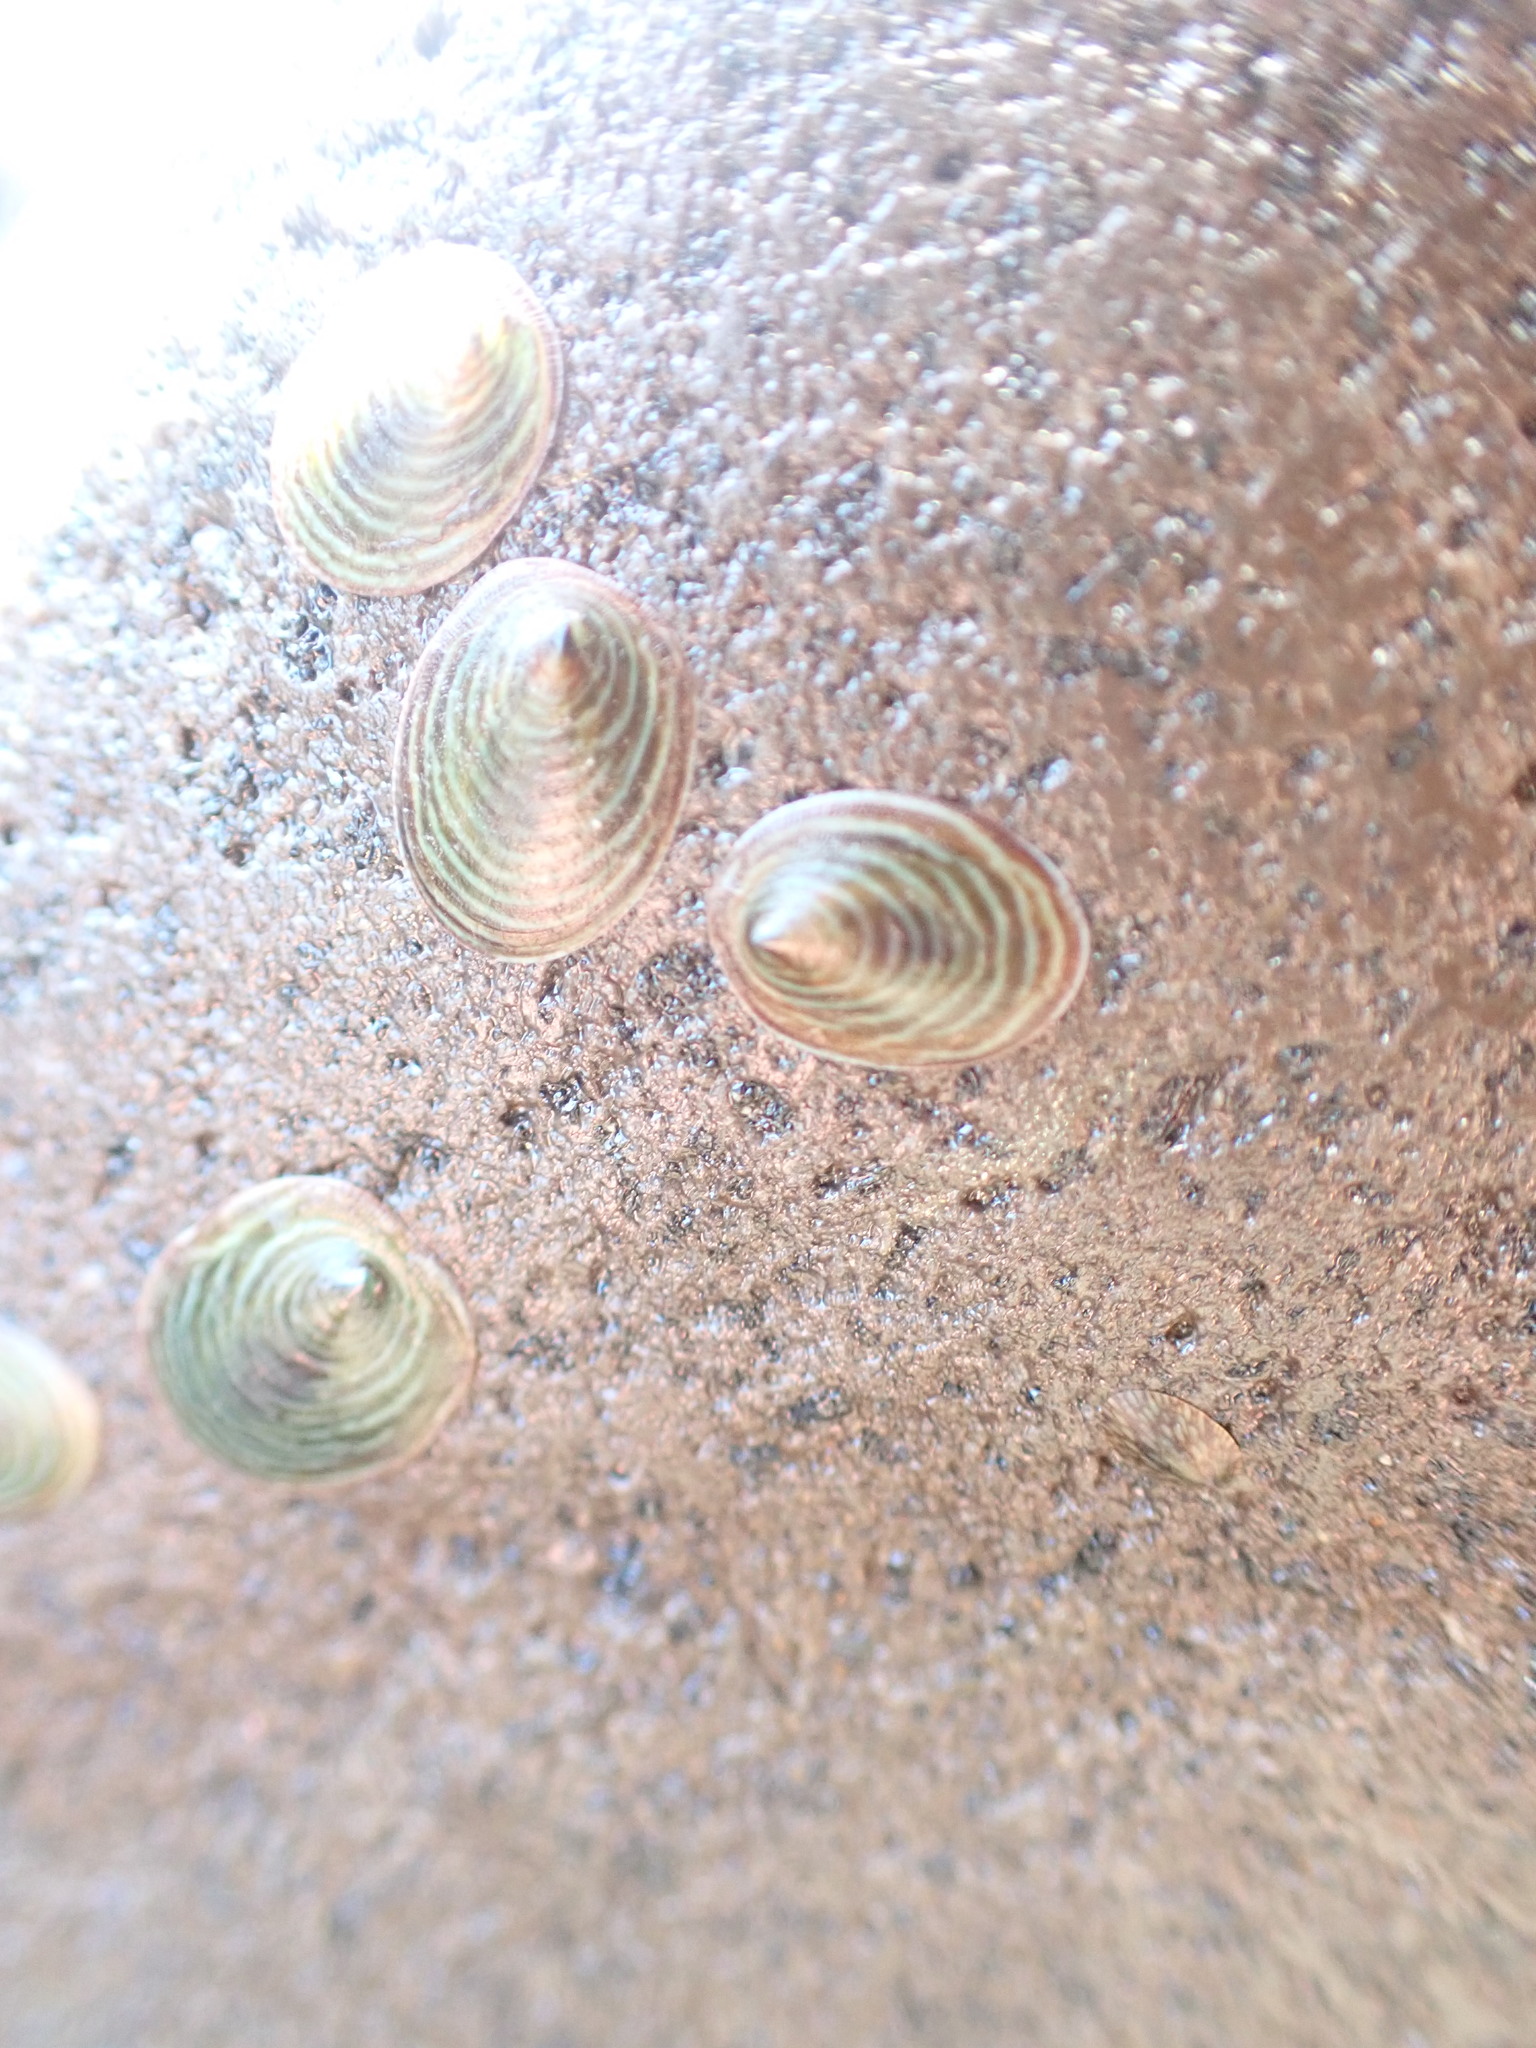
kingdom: Animalia
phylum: Mollusca
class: Gastropoda
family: Lottiidae
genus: Atalacmea
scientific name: Atalacmea fragilis
